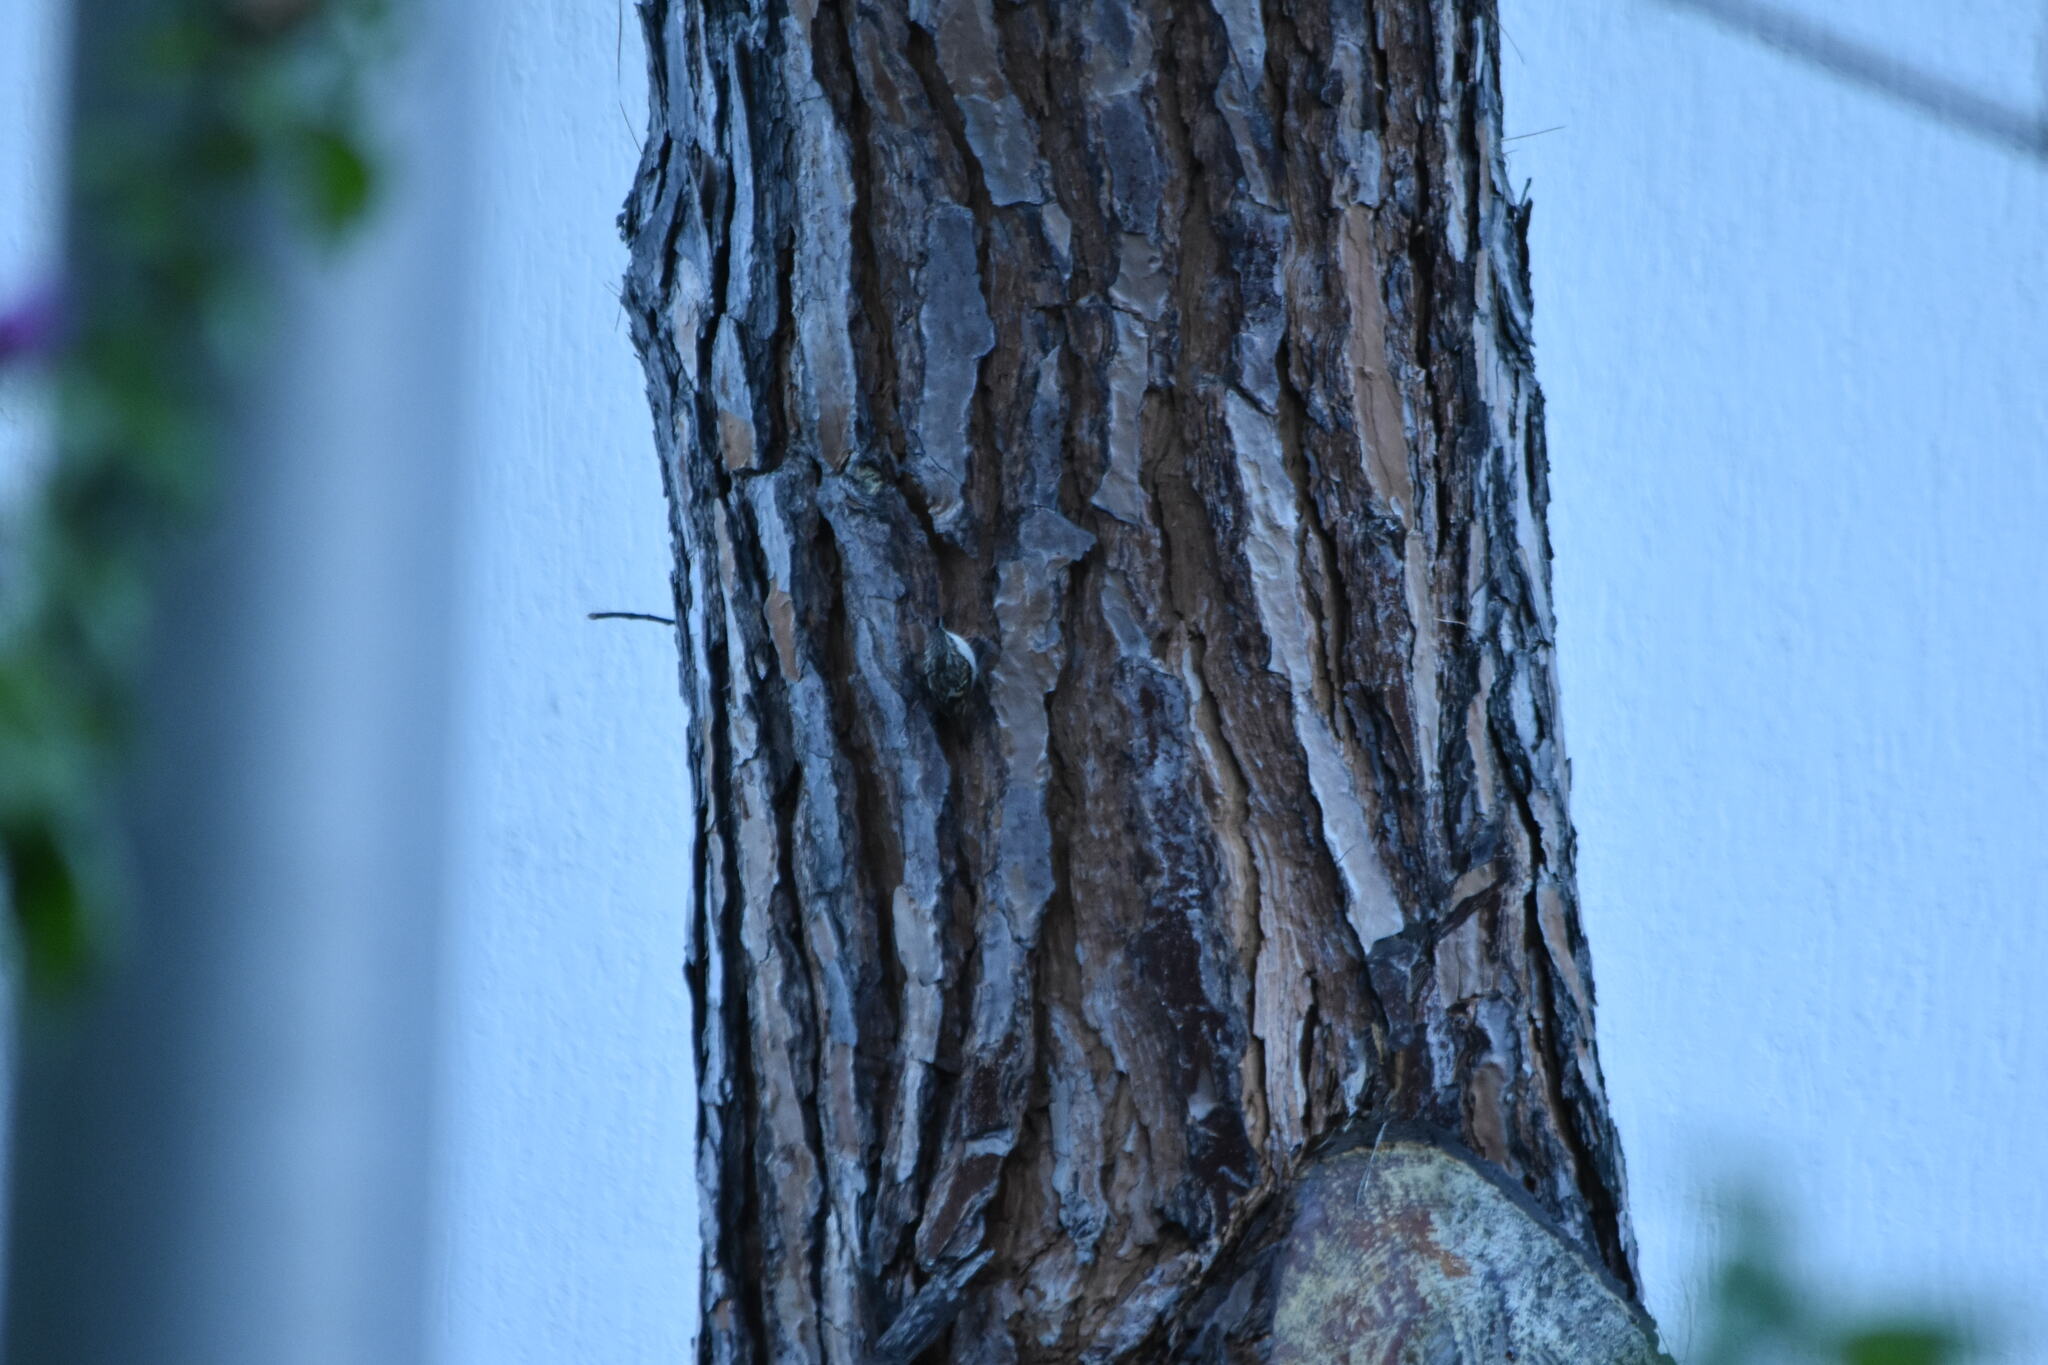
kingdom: Animalia
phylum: Chordata
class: Aves
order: Passeriformes
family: Certhiidae
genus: Certhia
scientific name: Certhia brachydactyla
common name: Short-toed treecreeper
